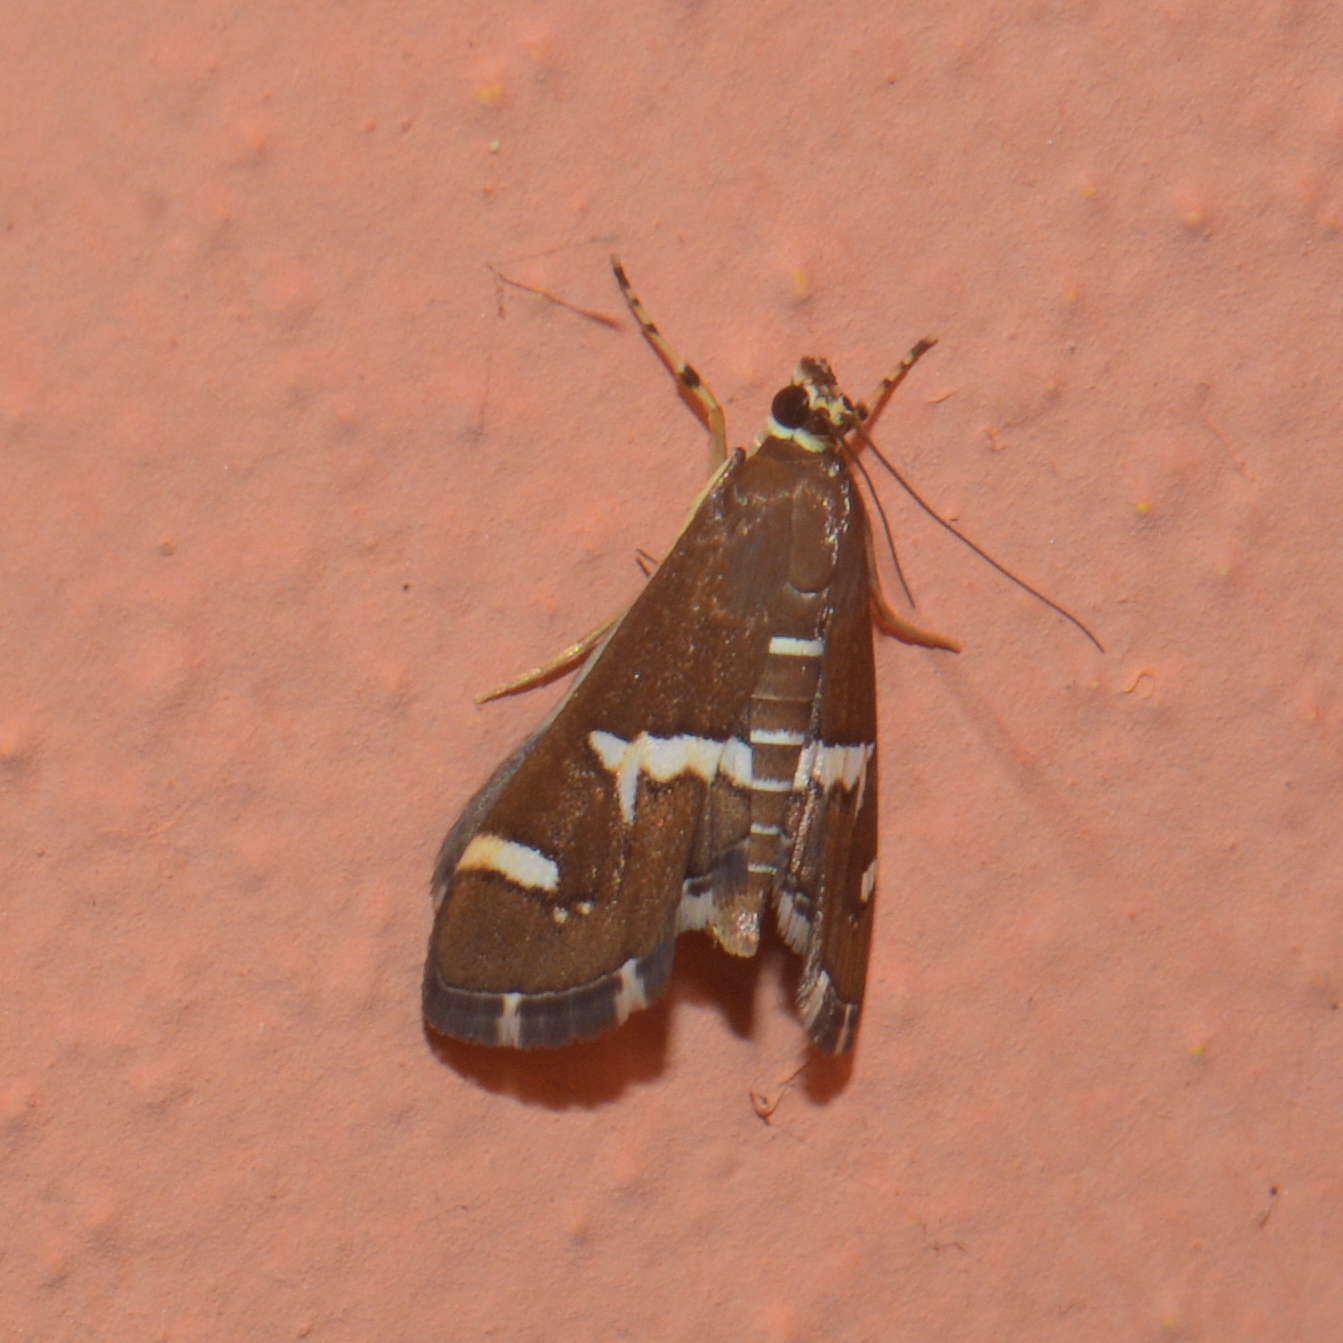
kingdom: Animalia
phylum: Arthropoda
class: Insecta
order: Lepidoptera
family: Crambidae
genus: Spoladea
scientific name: Spoladea recurvalis
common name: Beet webworm moth
